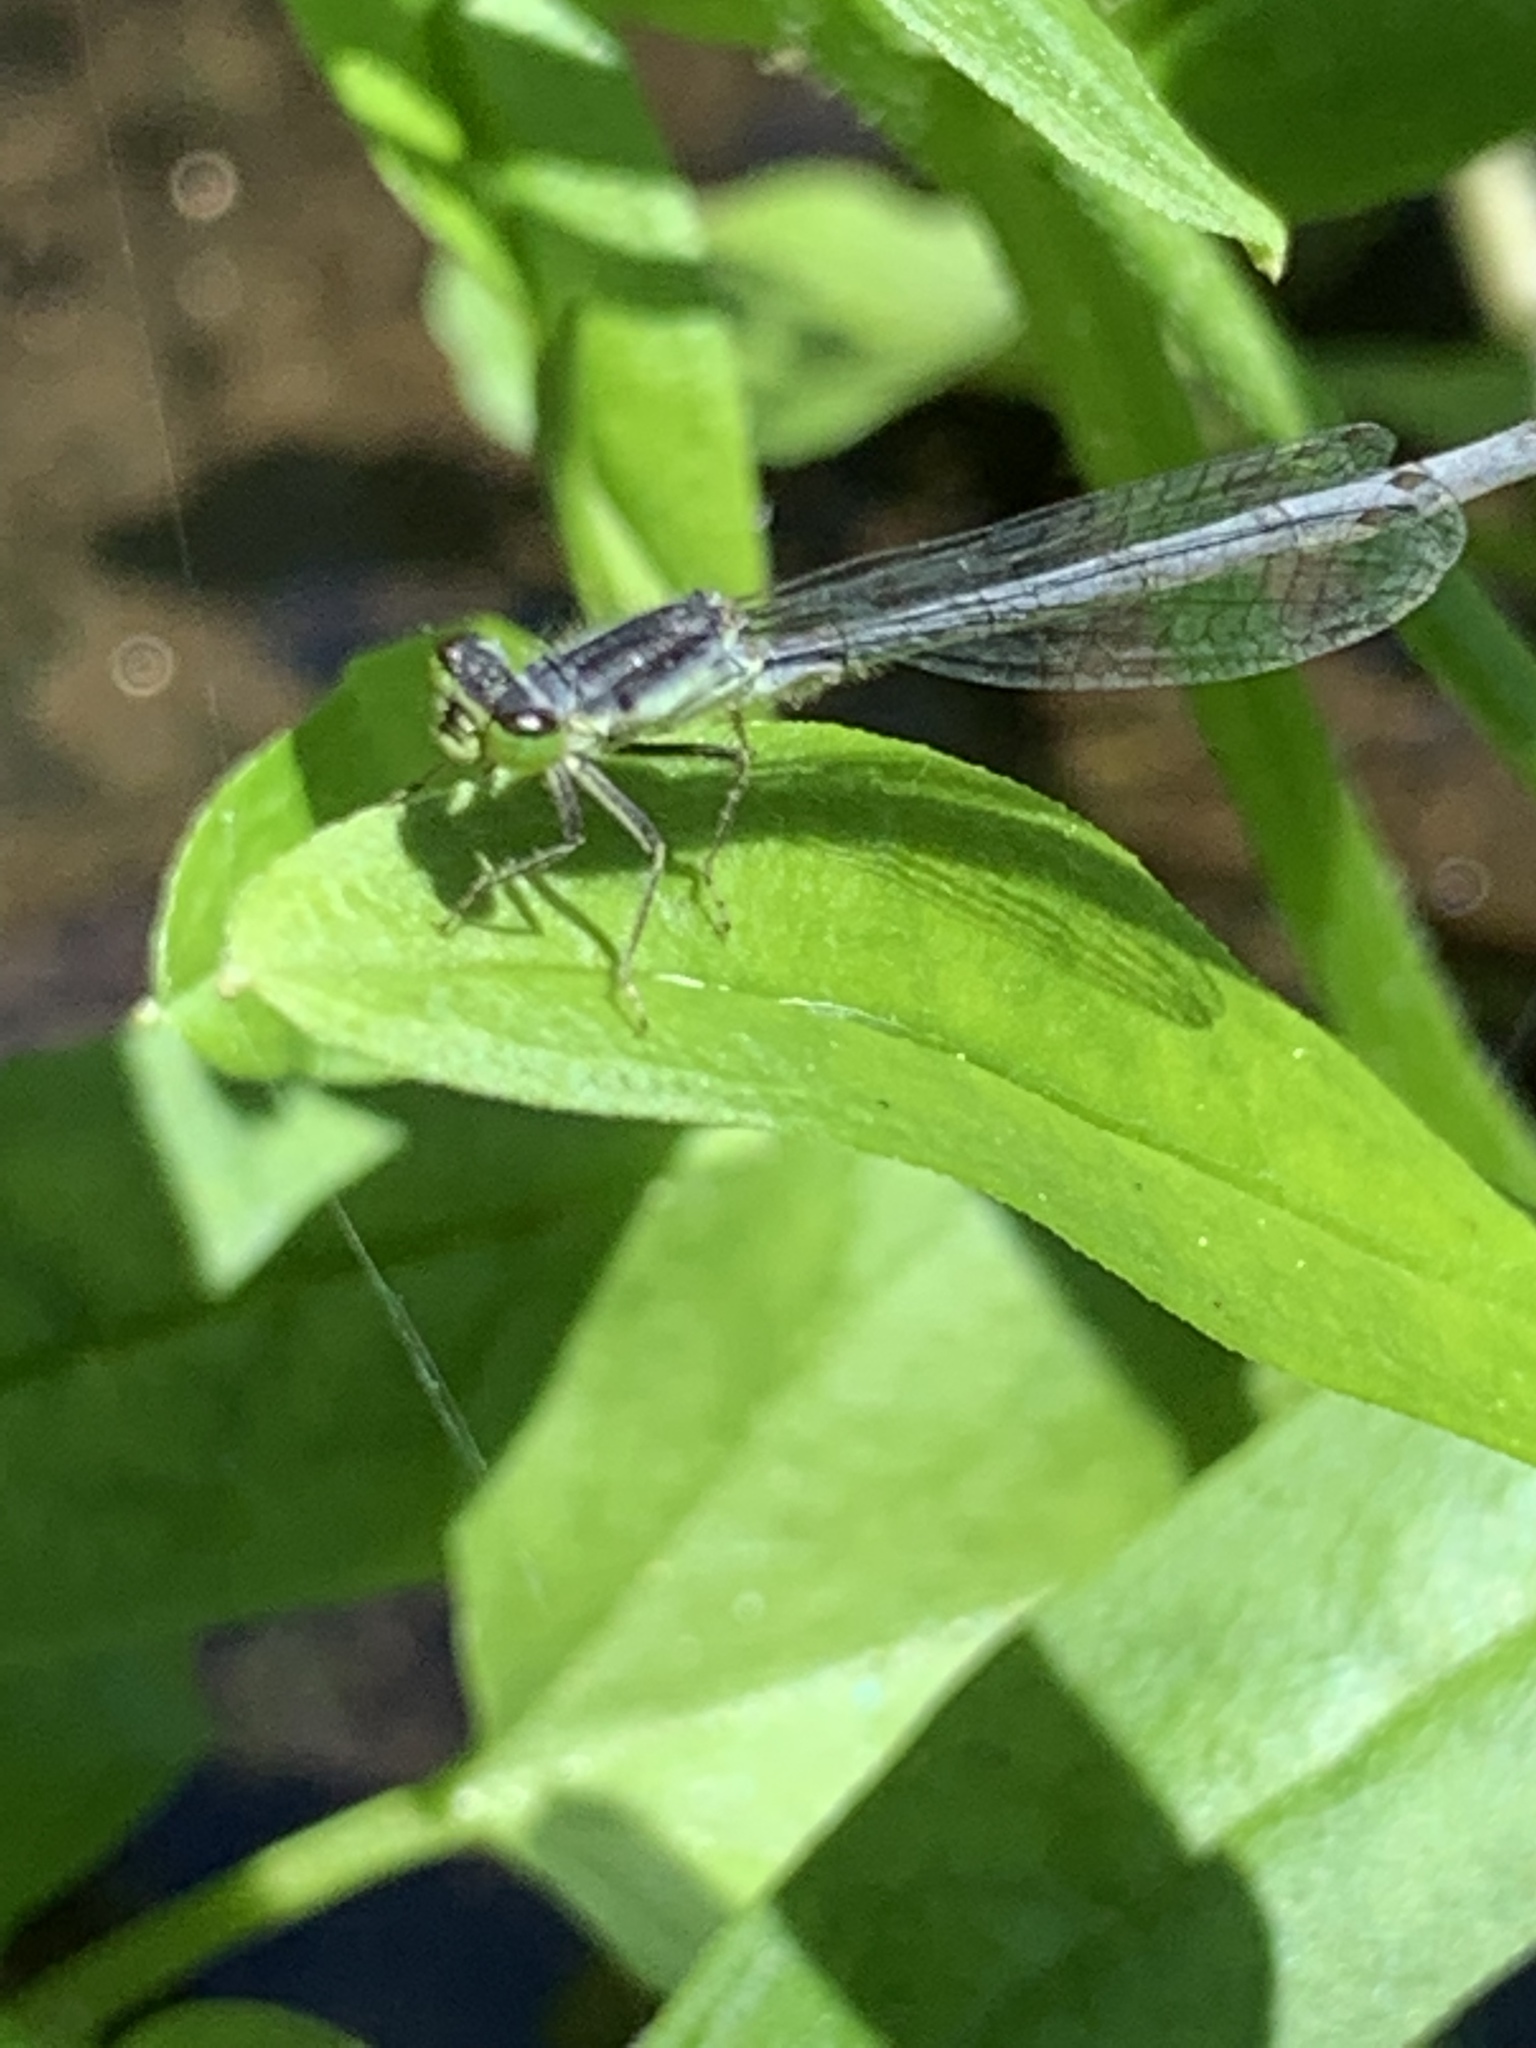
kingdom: Animalia
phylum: Arthropoda
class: Insecta
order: Odonata
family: Coenagrionidae
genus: Ischnura
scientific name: Ischnura verticalis
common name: Eastern forktail
